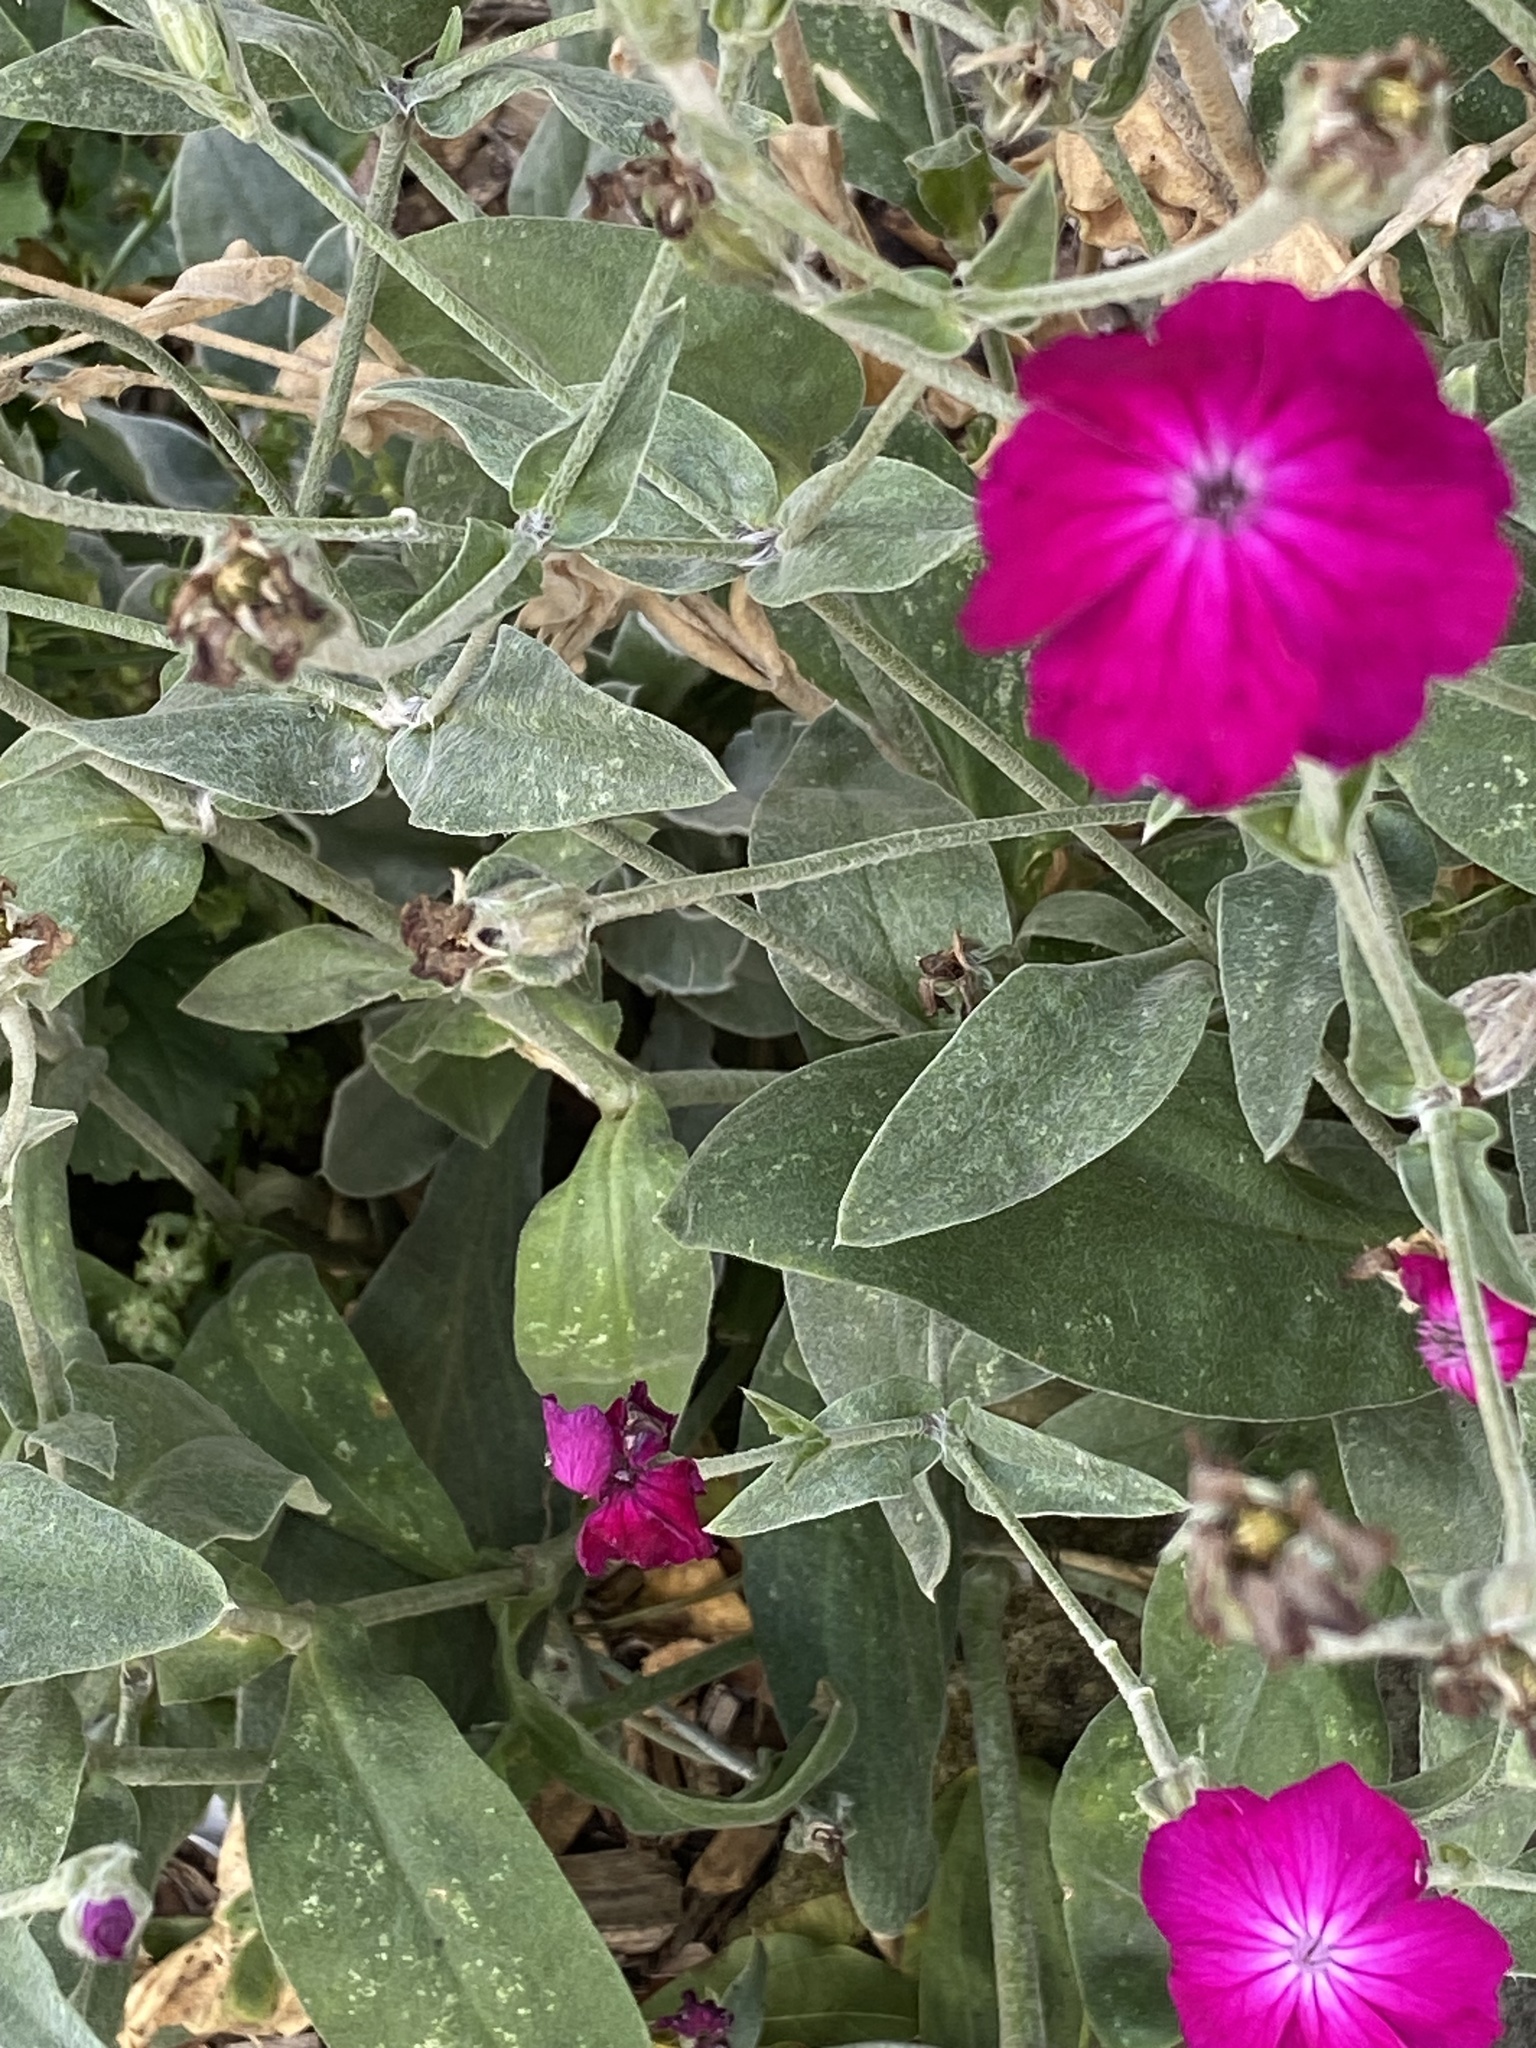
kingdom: Plantae
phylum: Tracheophyta
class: Magnoliopsida
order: Caryophyllales
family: Caryophyllaceae
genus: Silene
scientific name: Silene coronaria
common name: Rose campion
